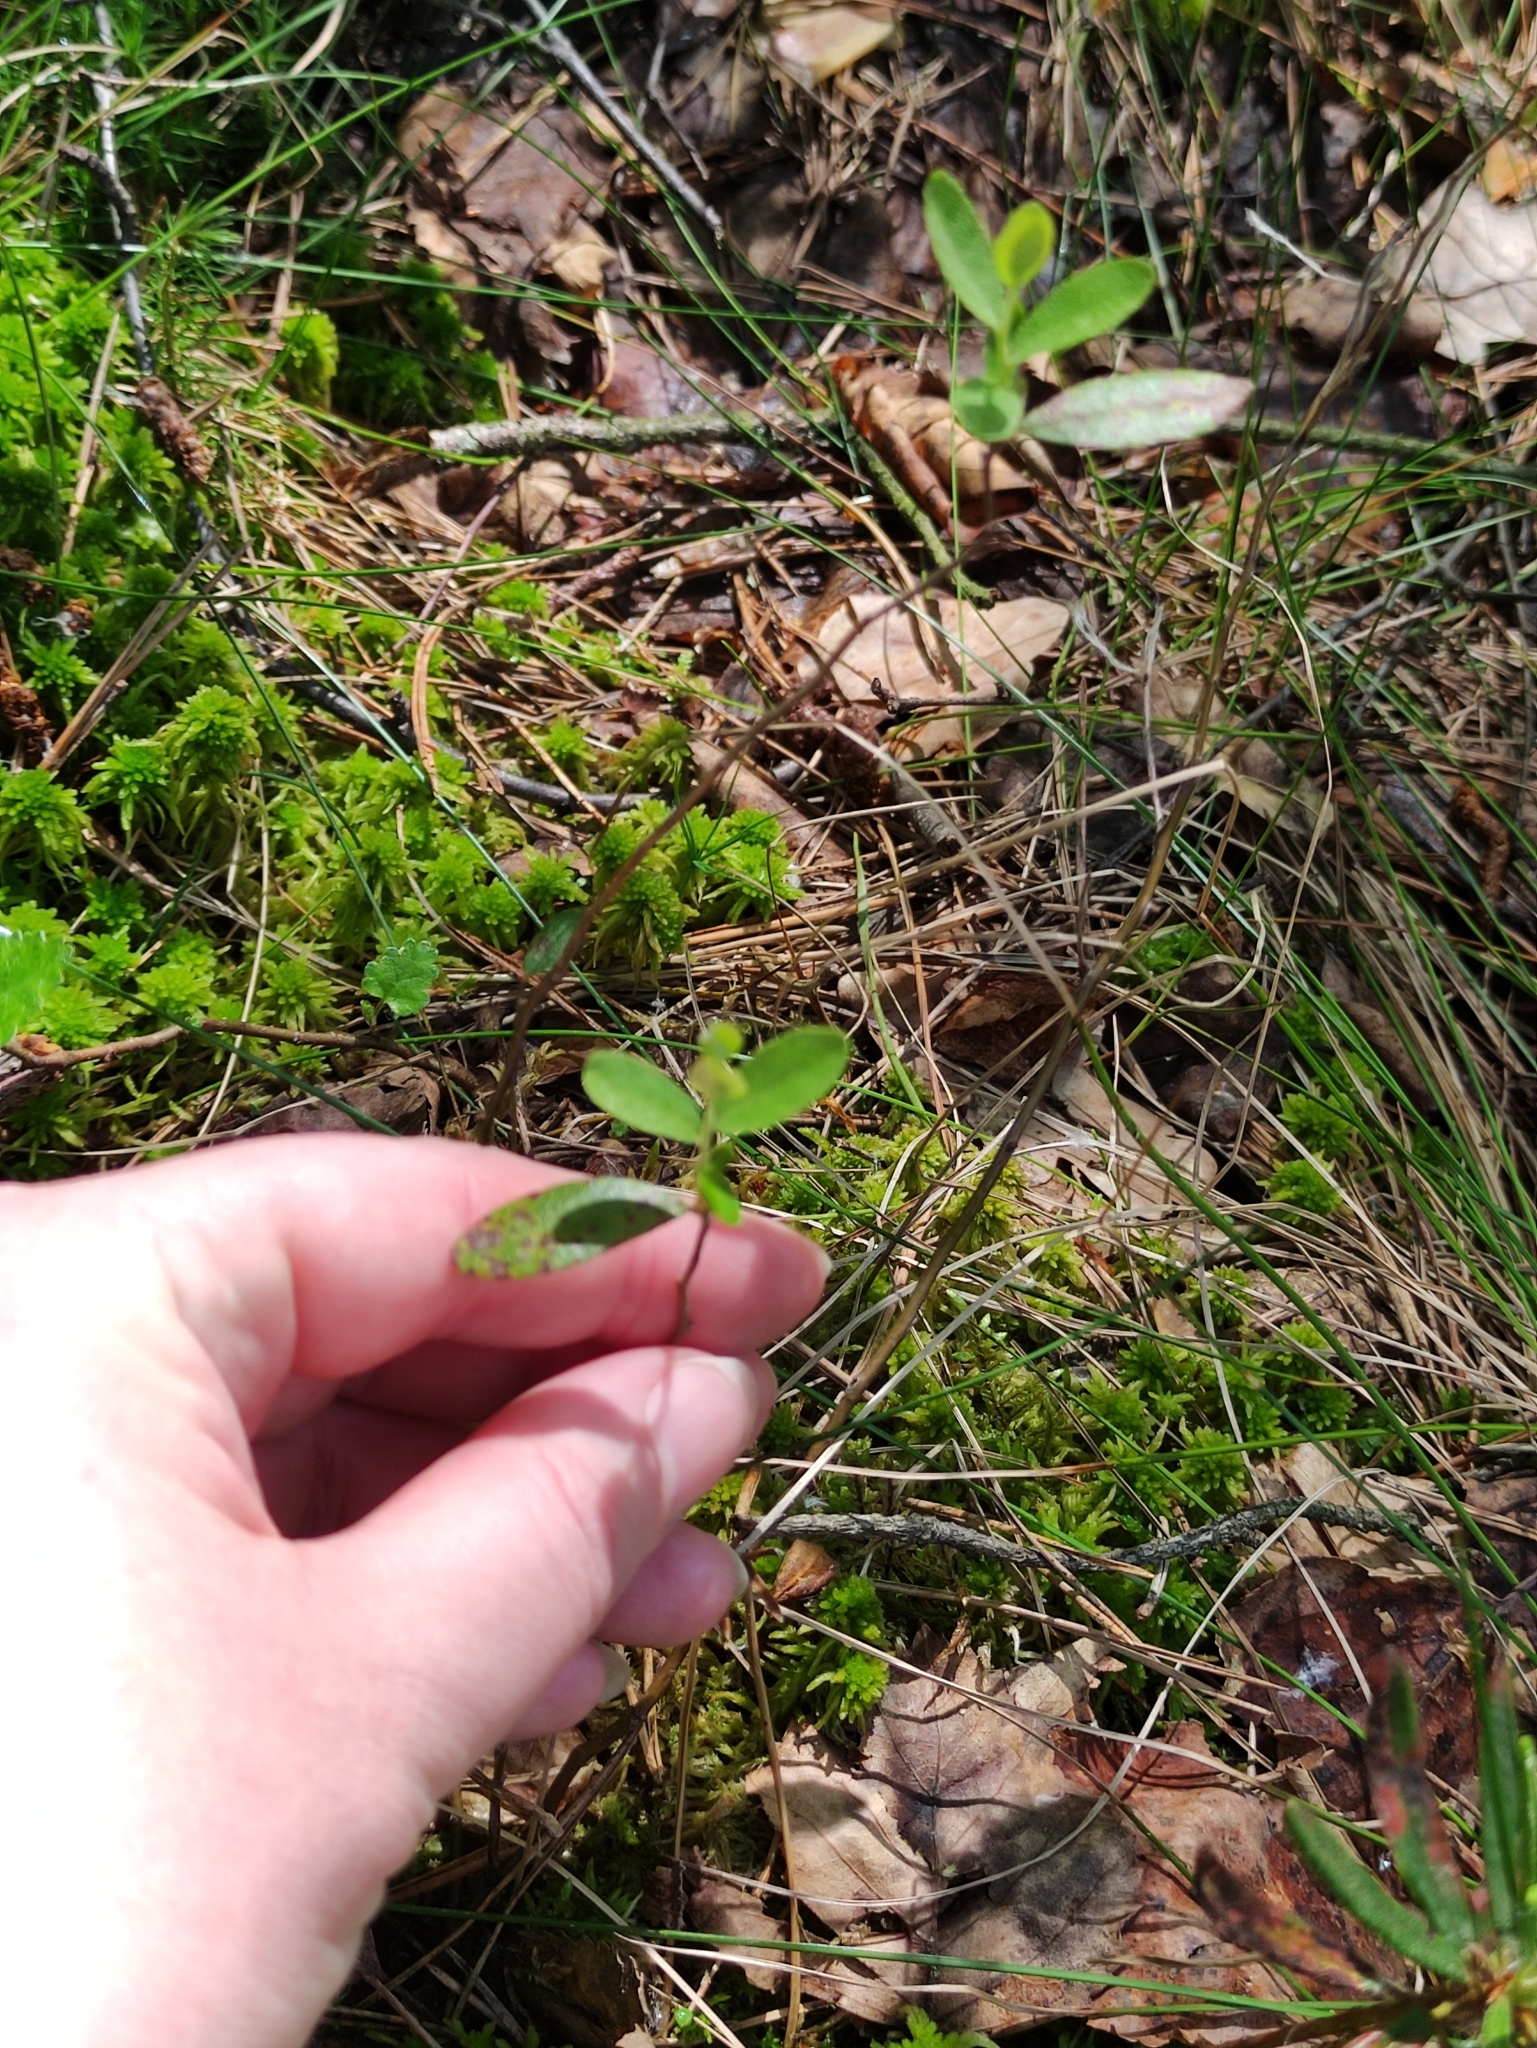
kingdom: Plantae
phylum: Tracheophyta
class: Magnoliopsida
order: Ericales
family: Ericaceae
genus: Chamaedaphne
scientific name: Chamaedaphne calyculata
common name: Leatherleaf
